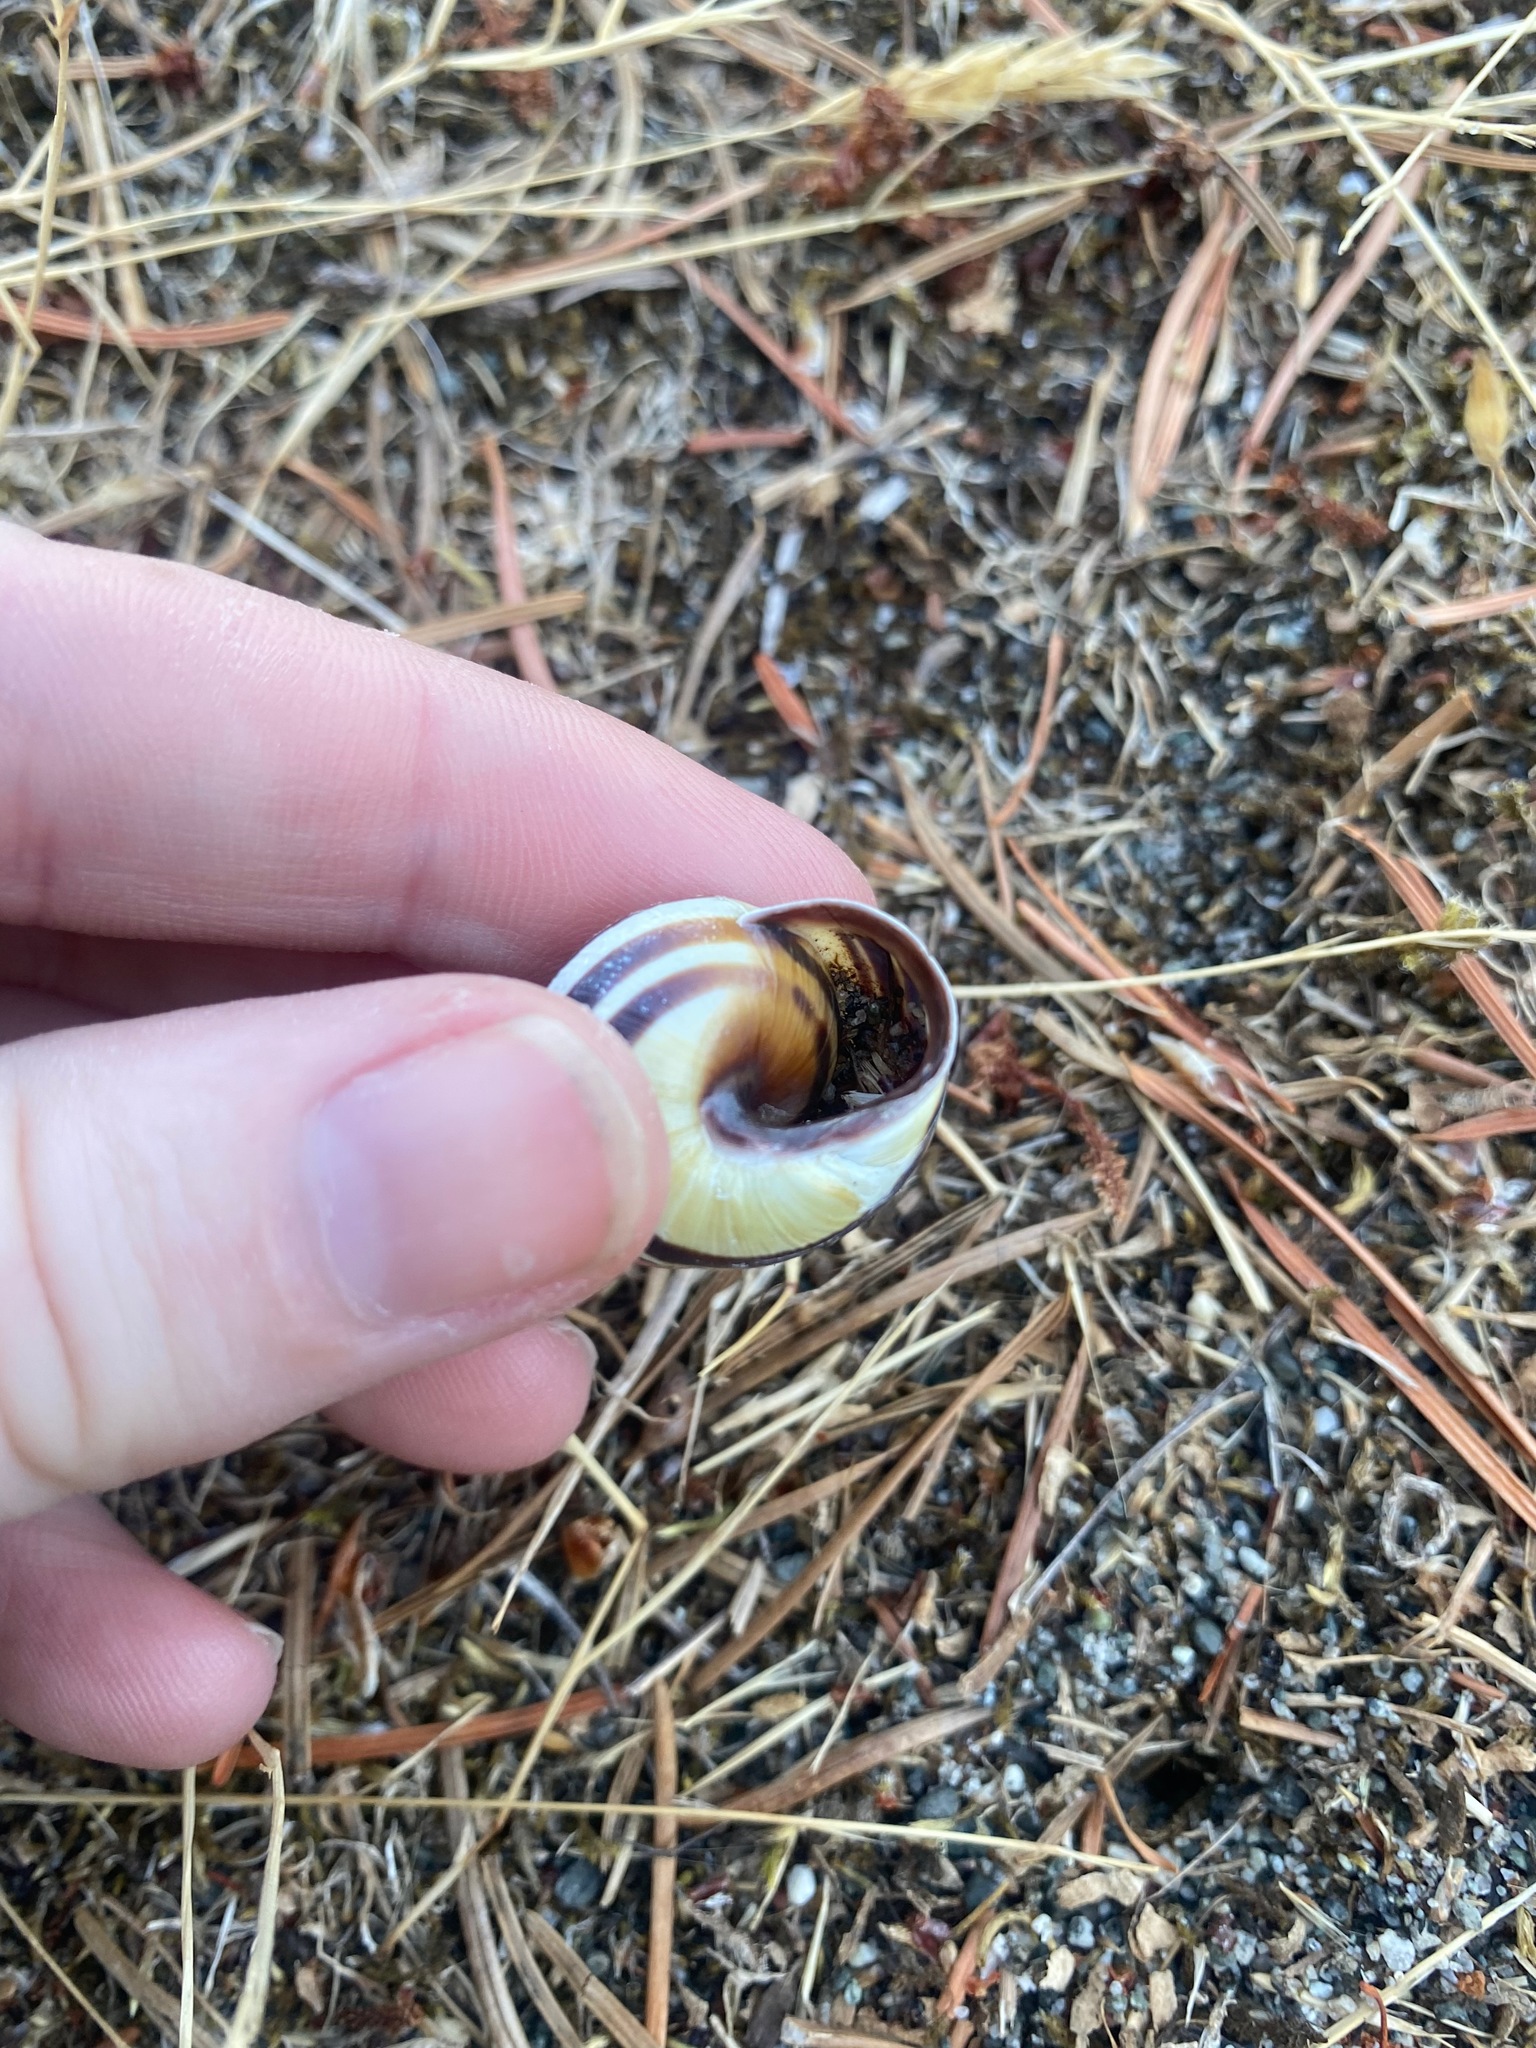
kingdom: Animalia
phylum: Mollusca
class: Gastropoda
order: Stylommatophora
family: Helicidae
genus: Cepaea
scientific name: Cepaea nemoralis
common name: Grovesnail
